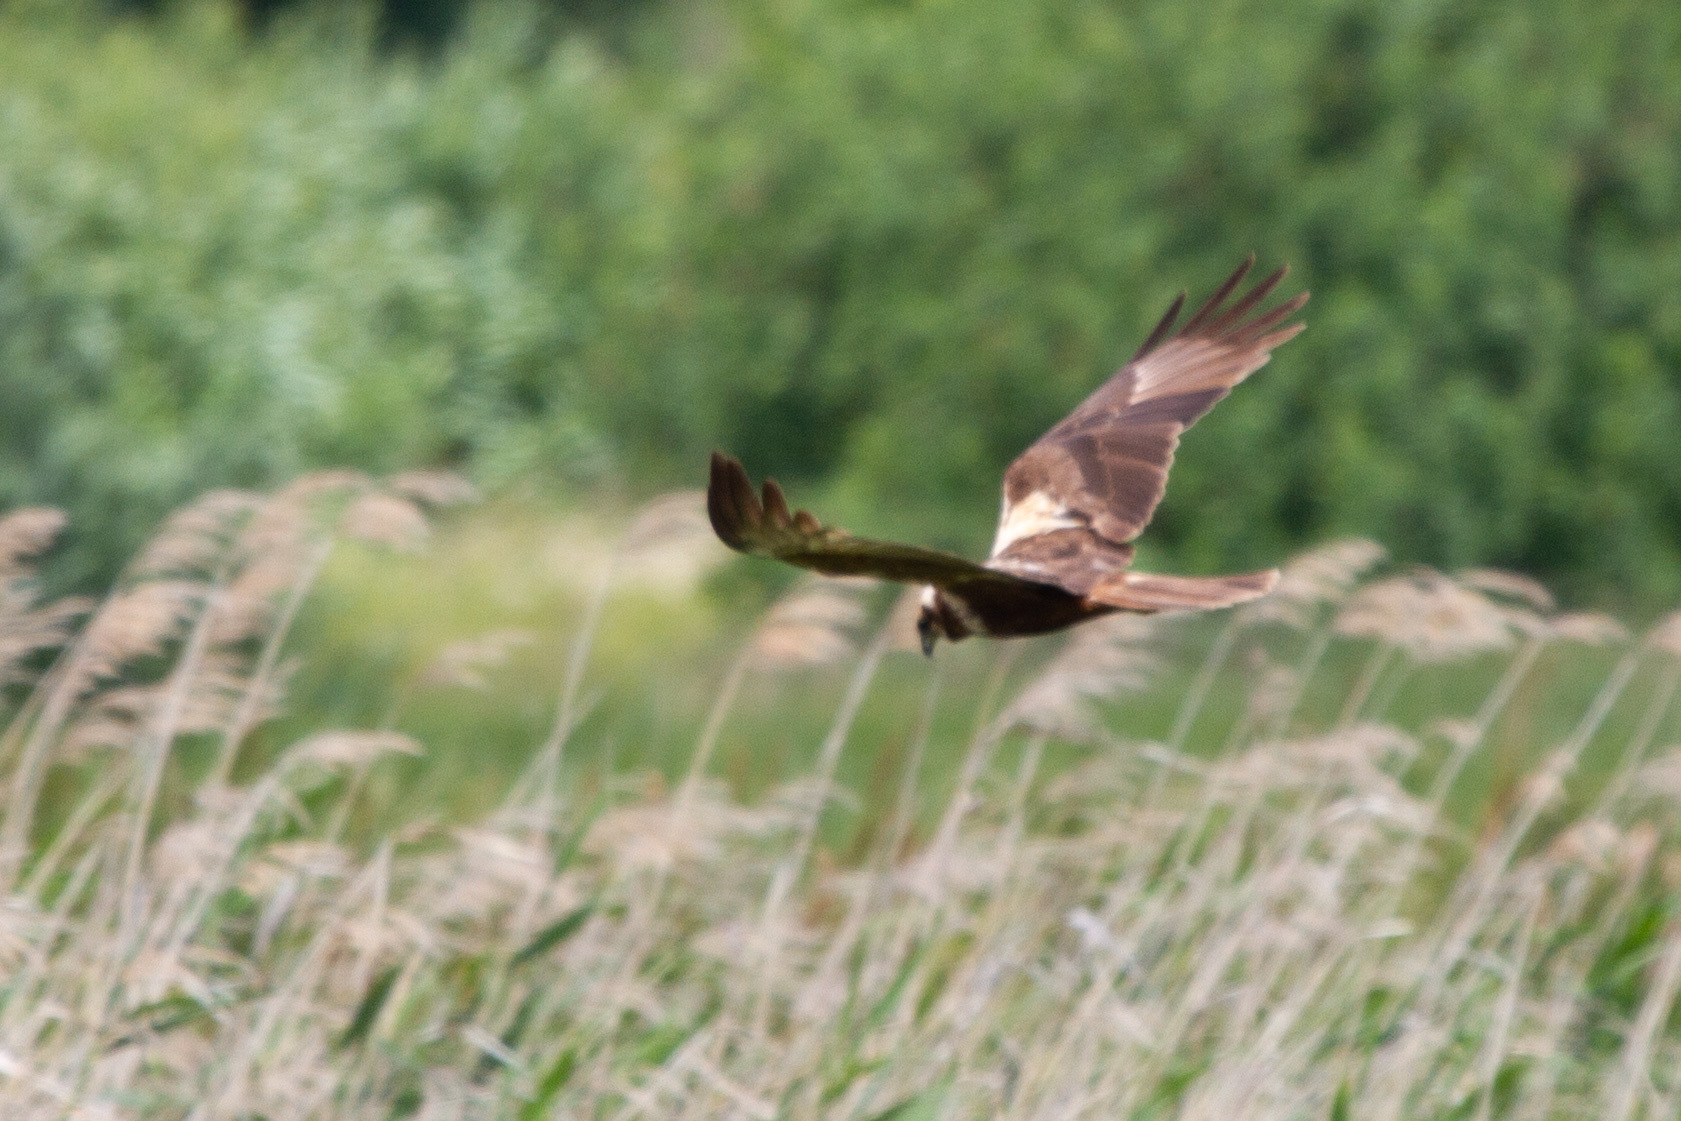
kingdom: Animalia
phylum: Chordata
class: Aves
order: Accipitriformes
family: Accipitridae
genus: Circus
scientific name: Circus aeruginosus
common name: Western marsh harrier
